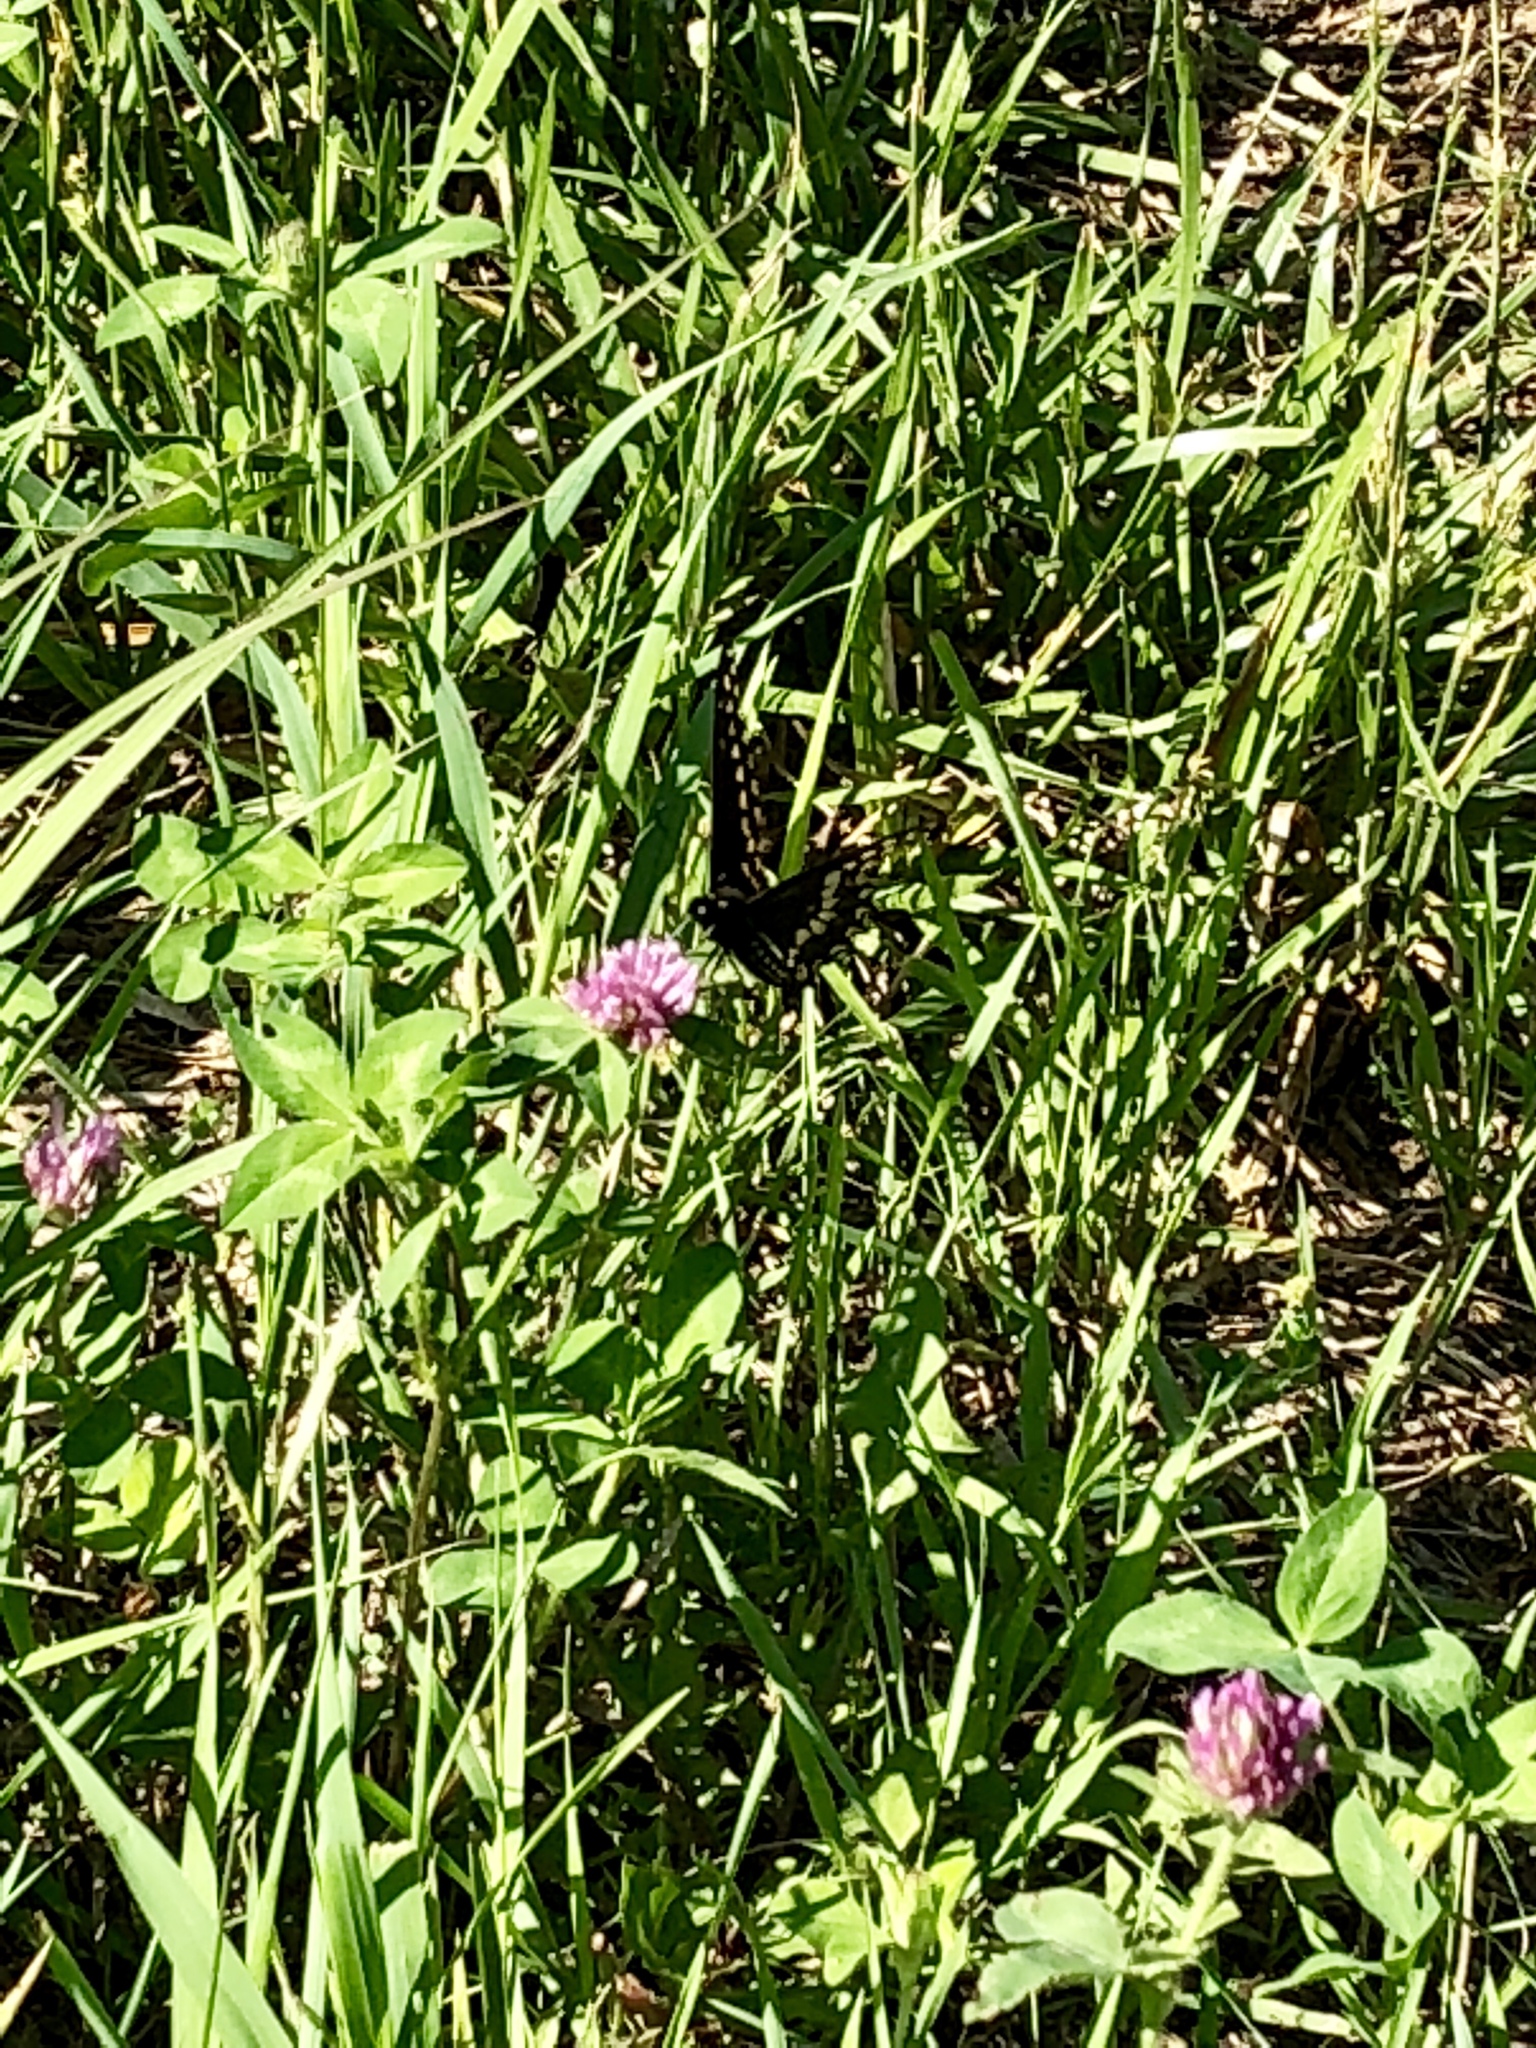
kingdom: Animalia
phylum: Arthropoda
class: Insecta
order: Lepidoptera
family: Papilionidae
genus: Papilio
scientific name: Papilio polyxenes
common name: Black swallowtail
